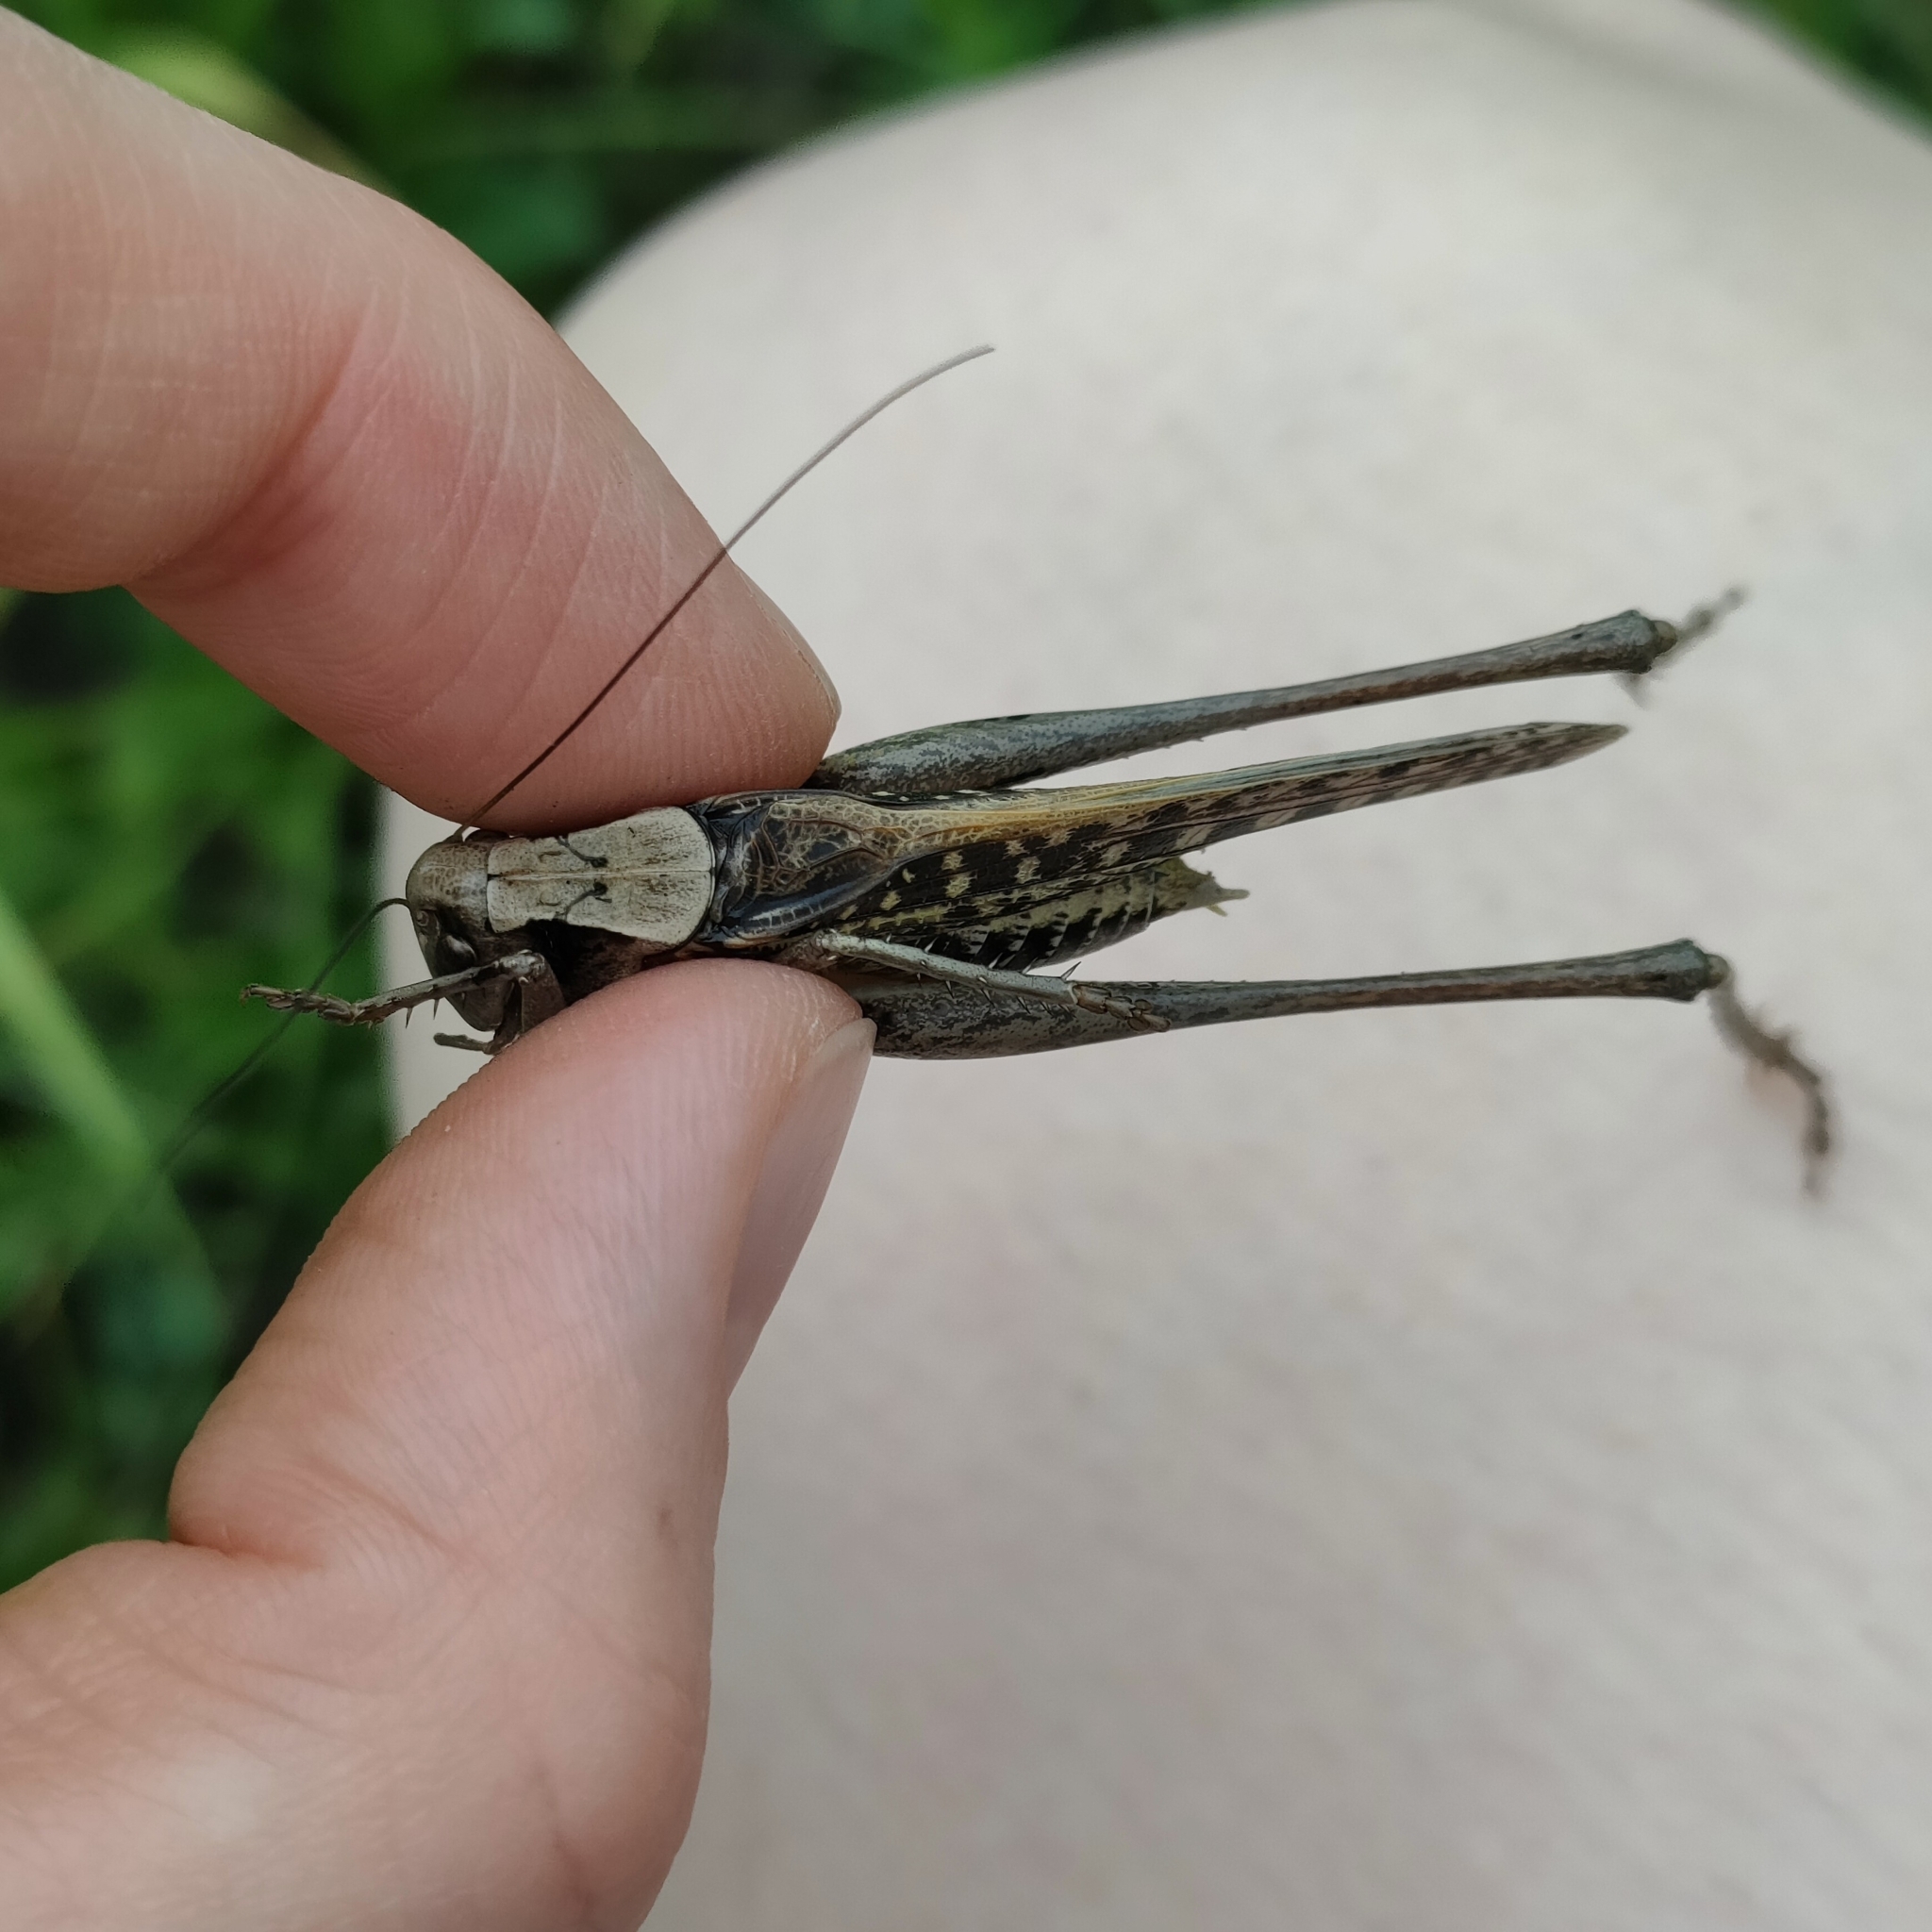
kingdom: Animalia
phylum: Arthropoda
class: Insecta
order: Orthoptera
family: Tettigoniidae
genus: Decticus
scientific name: Decticus verrucivorus
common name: Wart-biter
